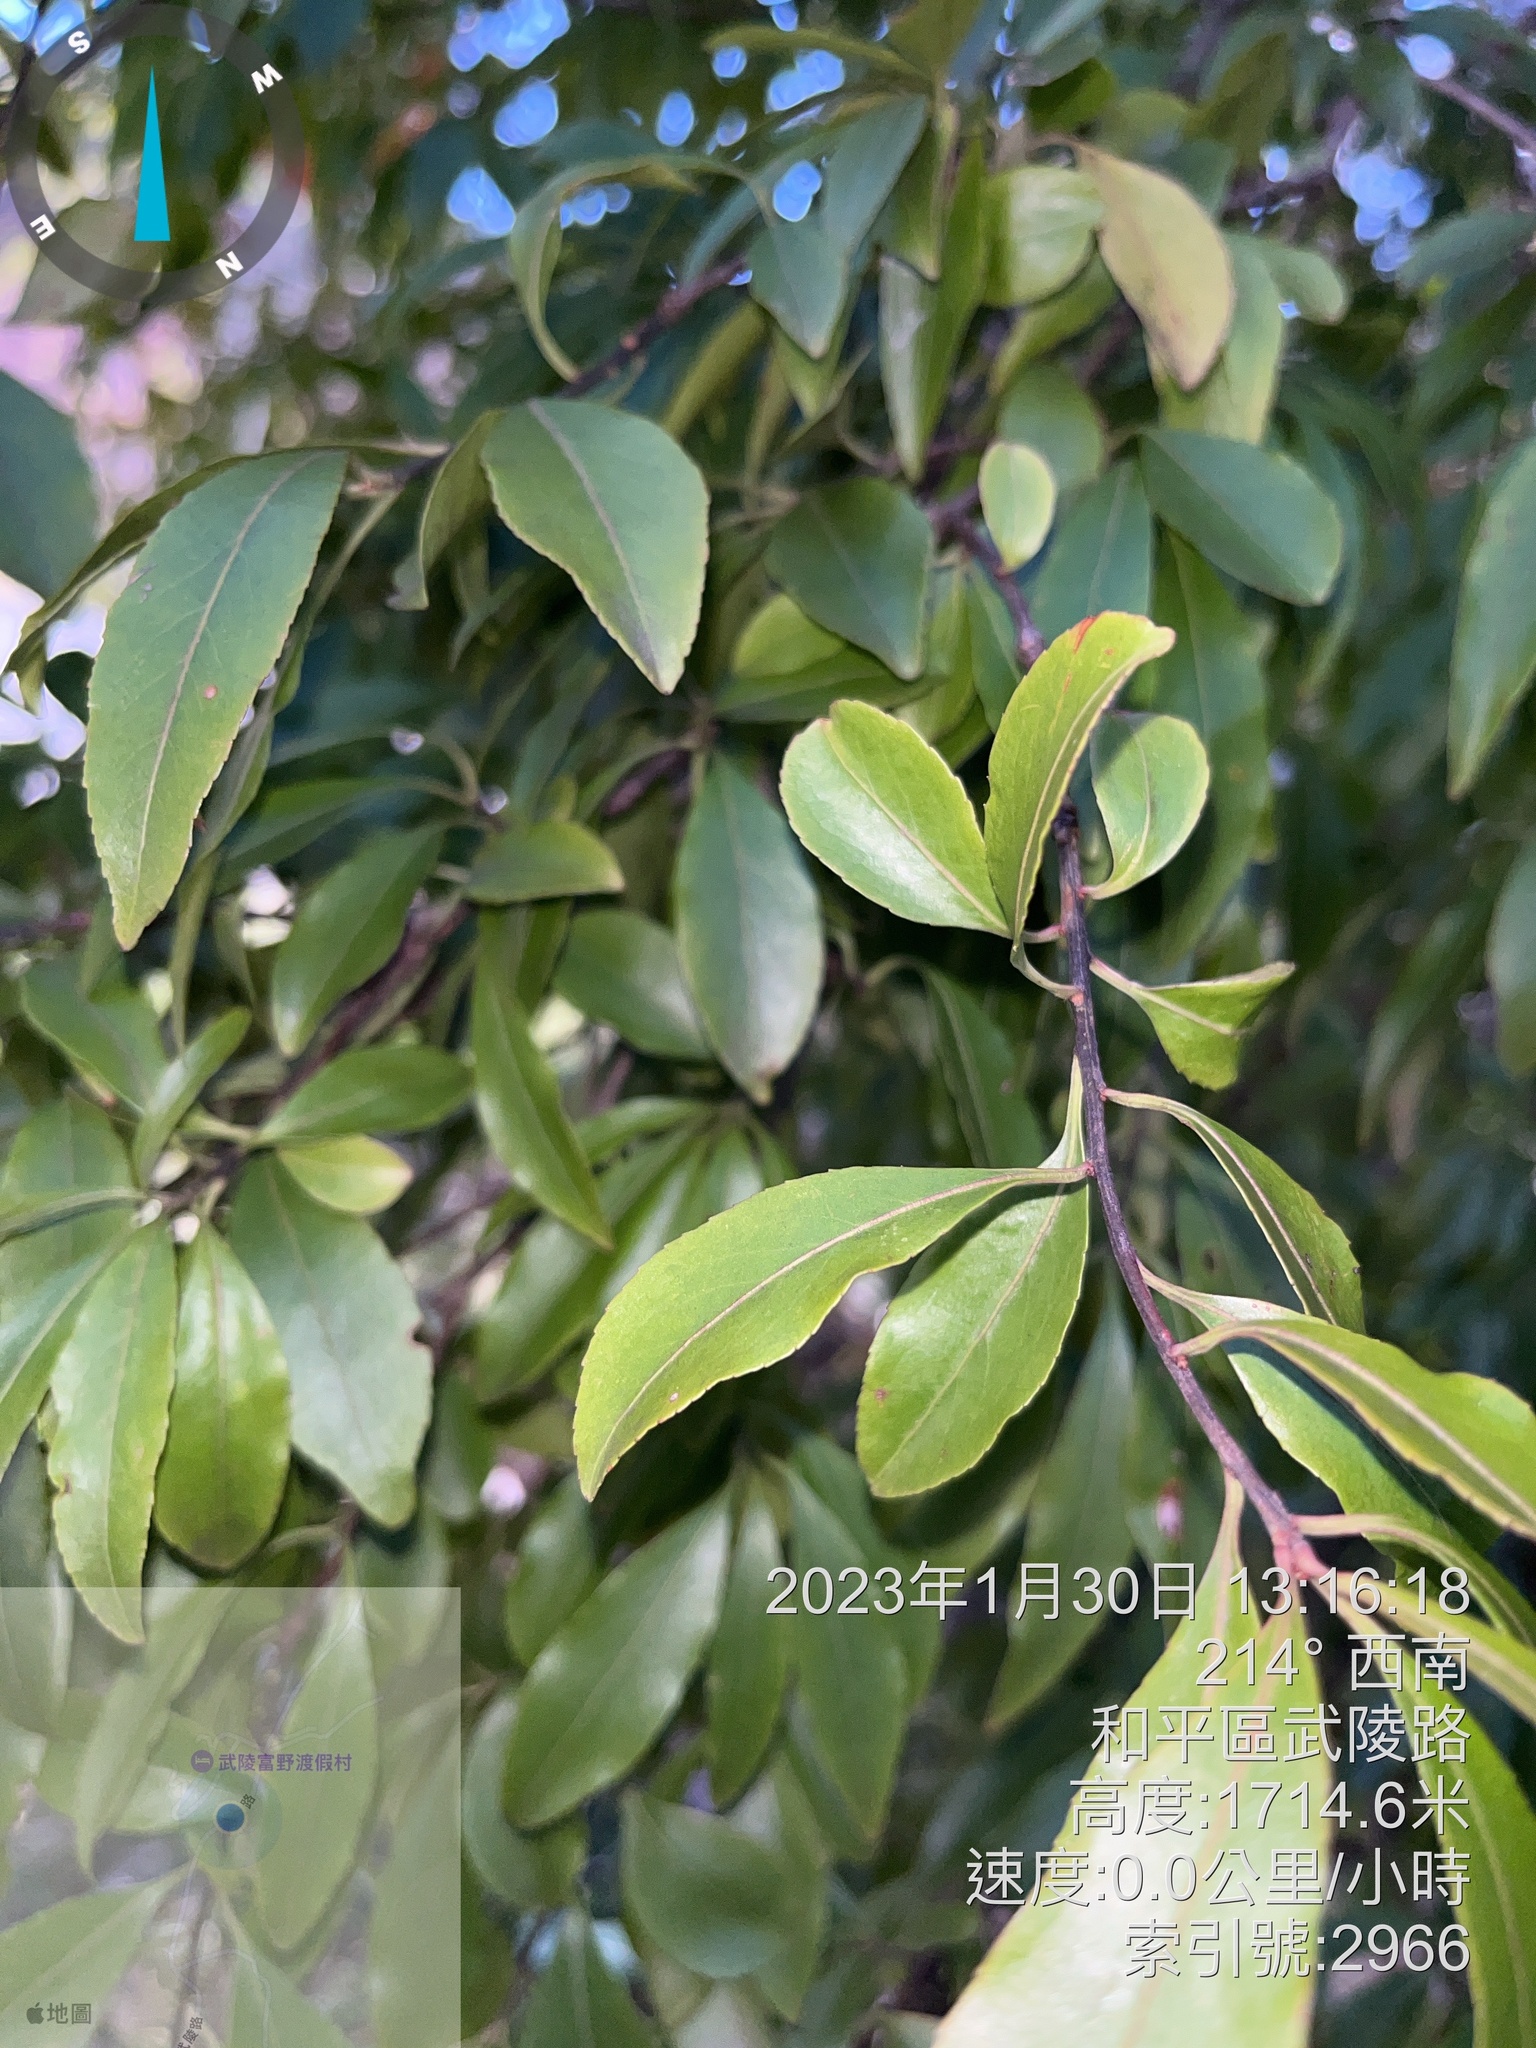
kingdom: Plantae
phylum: Tracheophyta
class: Magnoliopsida
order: Celastrales
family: Celastraceae
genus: Euonymus
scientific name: Euonymus carnosus
